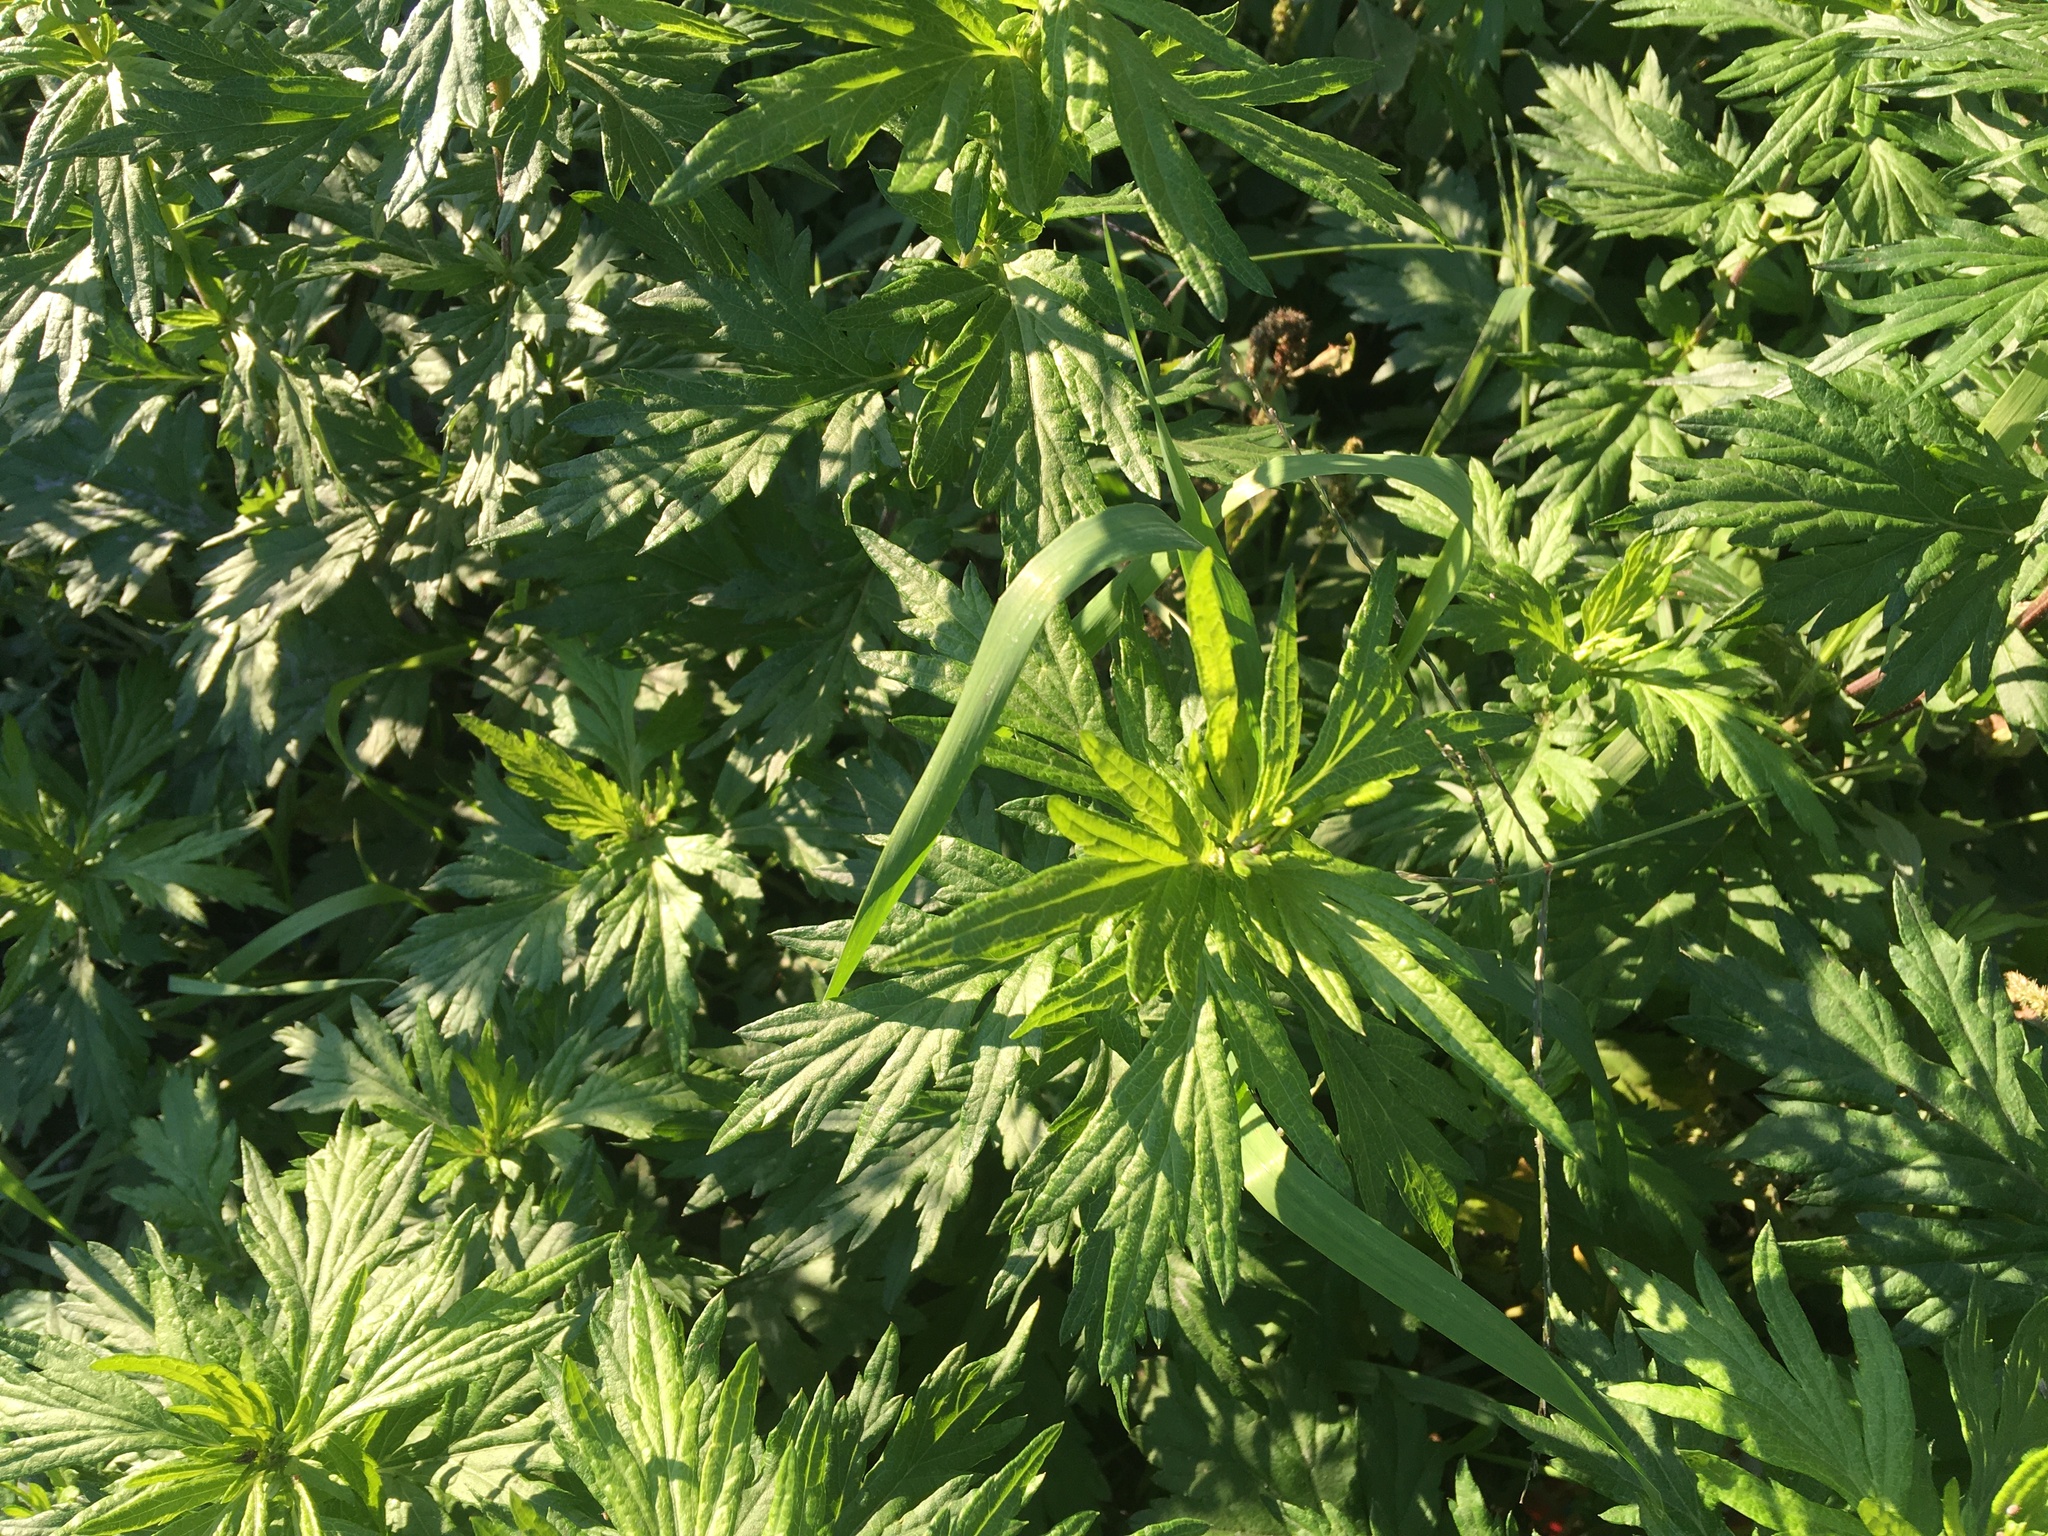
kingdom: Plantae
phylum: Tracheophyta
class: Magnoliopsida
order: Asterales
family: Asteraceae
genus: Artemisia
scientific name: Artemisia vulgaris
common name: Mugwort
